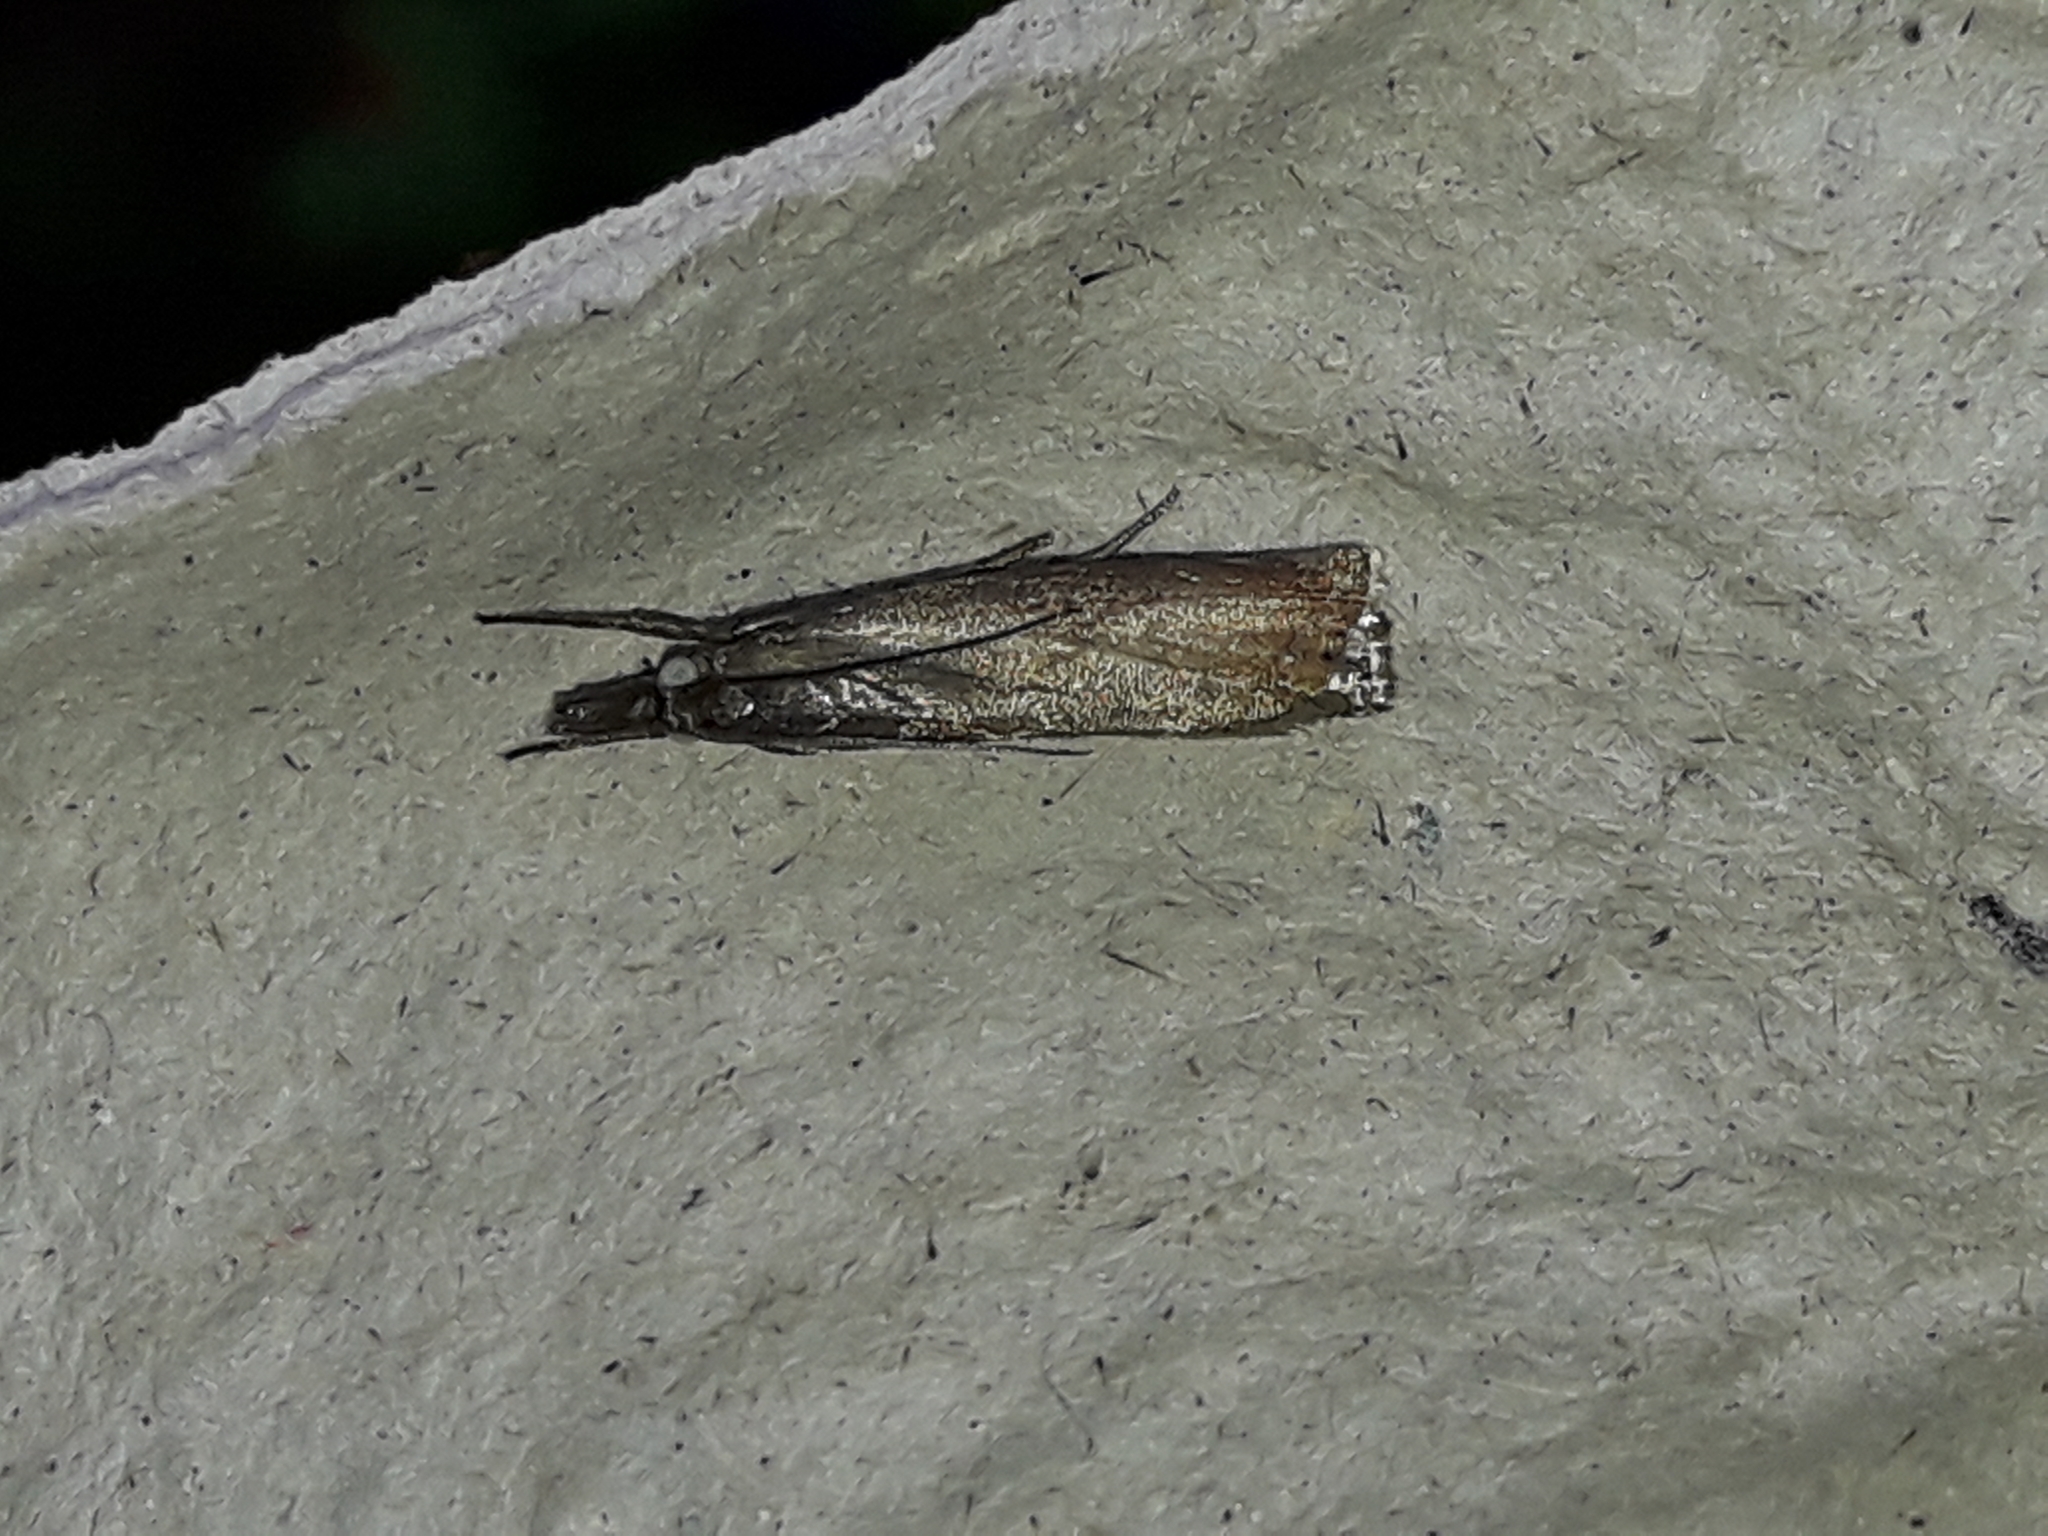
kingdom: Animalia
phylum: Arthropoda
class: Insecta
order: Lepidoptera
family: Crambidae
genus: Agriphila
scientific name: Agriphila straminella
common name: Straw grass-veneer
